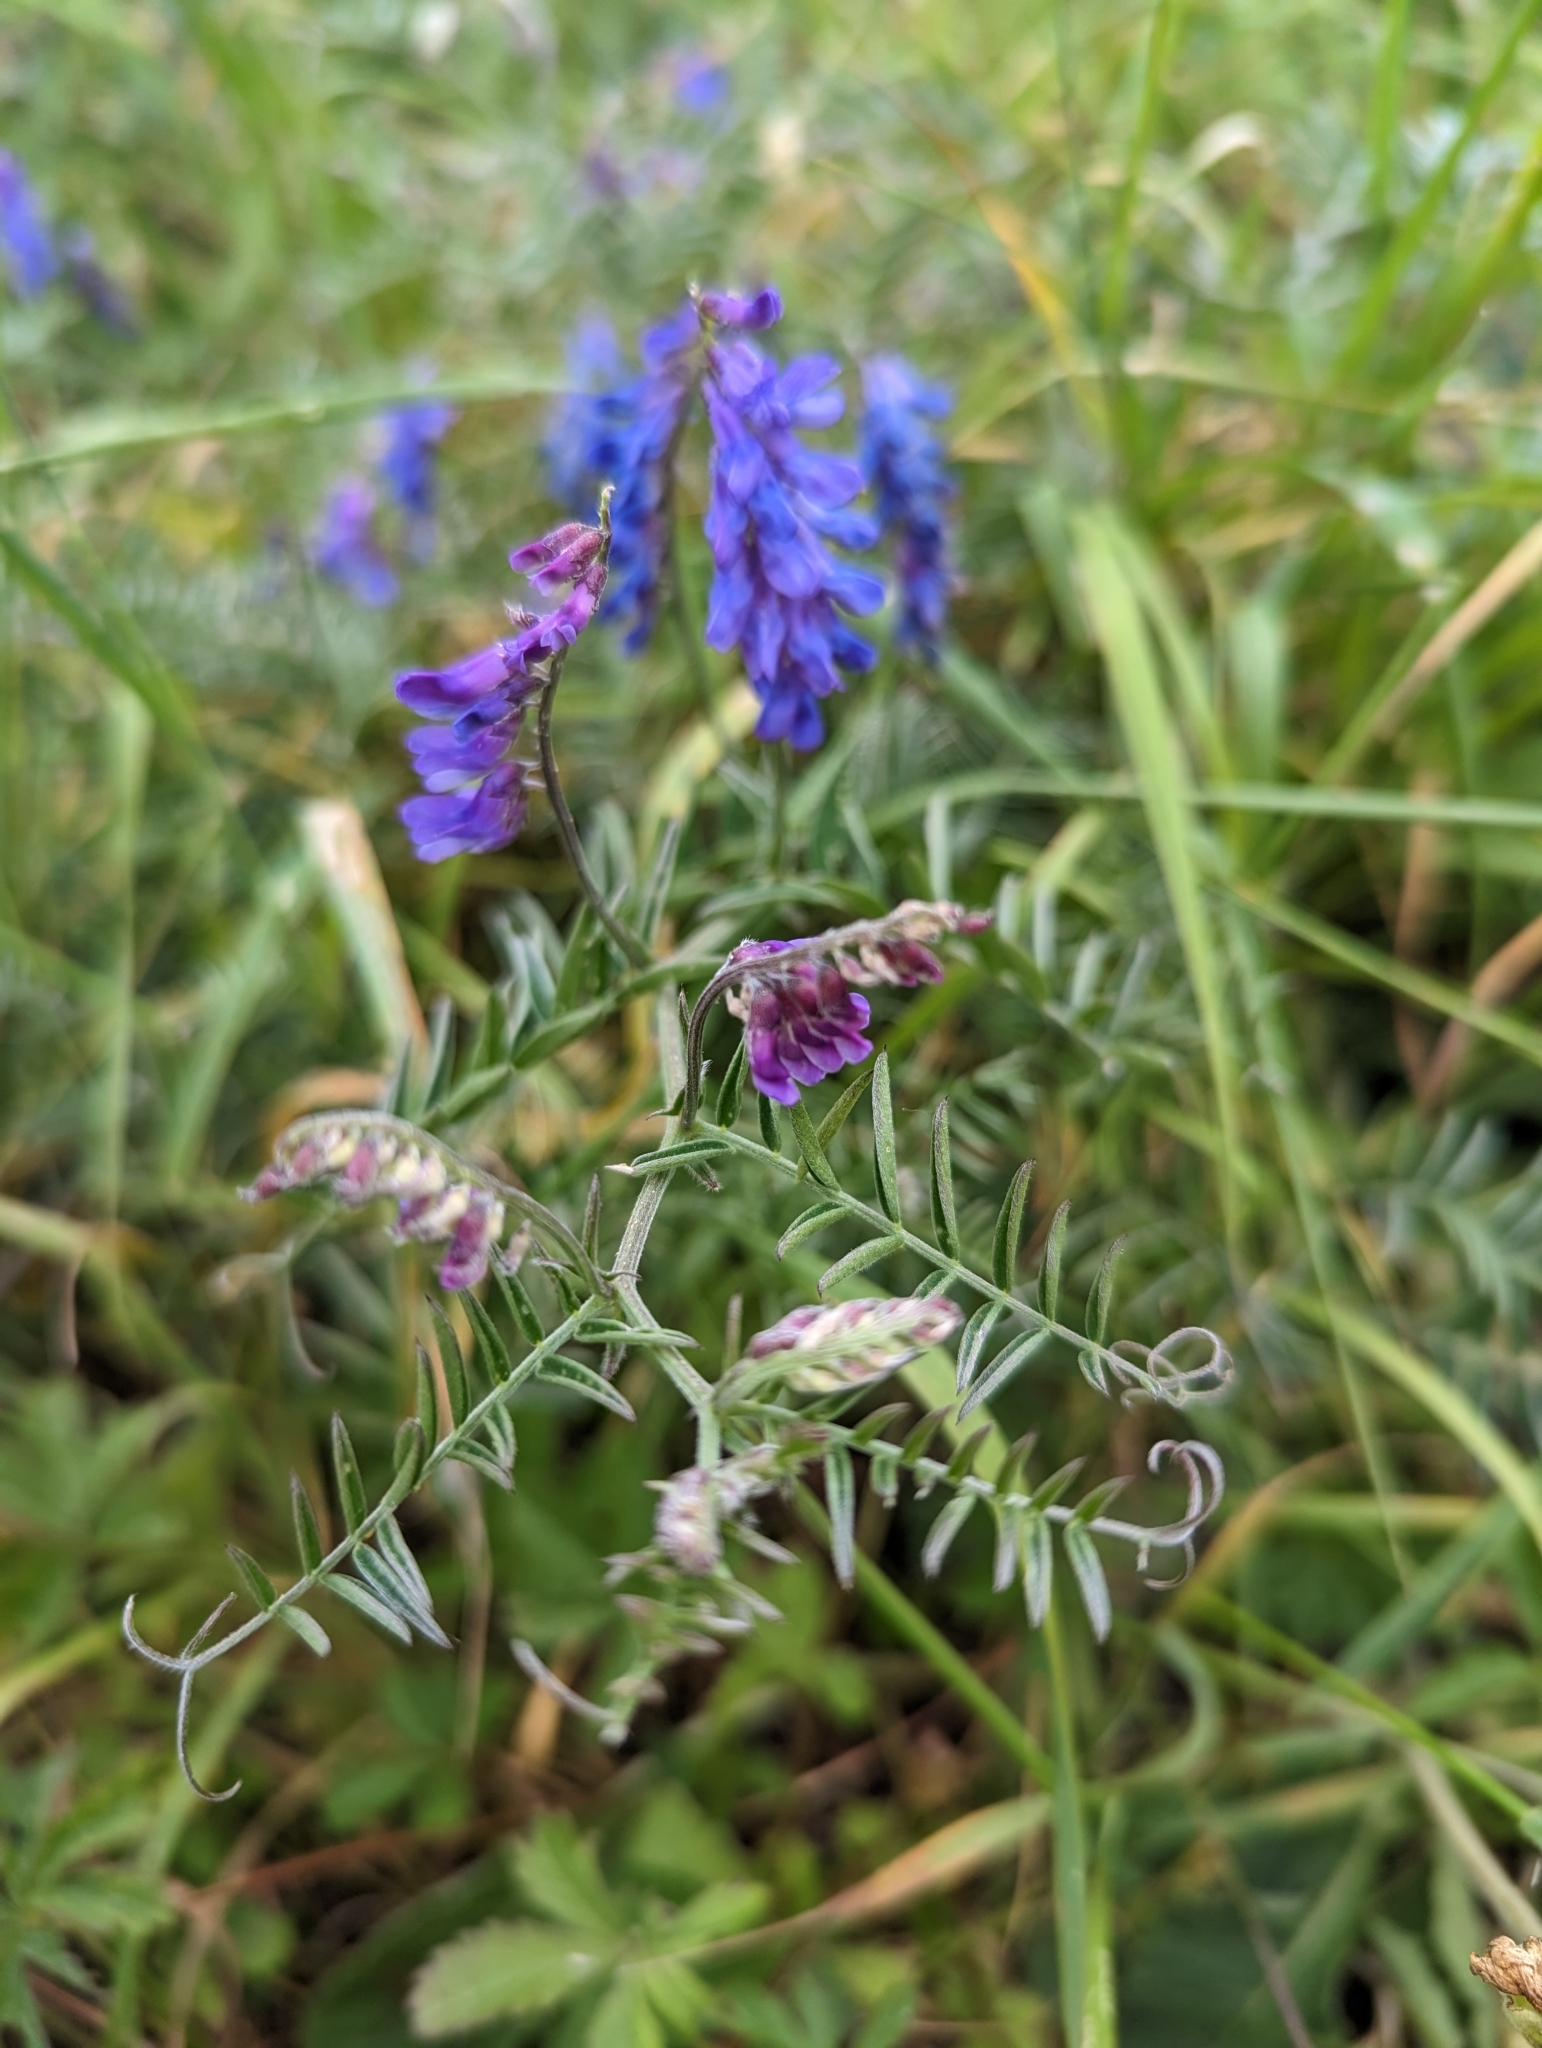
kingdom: Plantae
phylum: Tracheophyta
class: Magnoliopsida
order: Fabales
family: Fabaceae
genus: Vicia
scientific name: Vicia cracca
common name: Bird vetch
